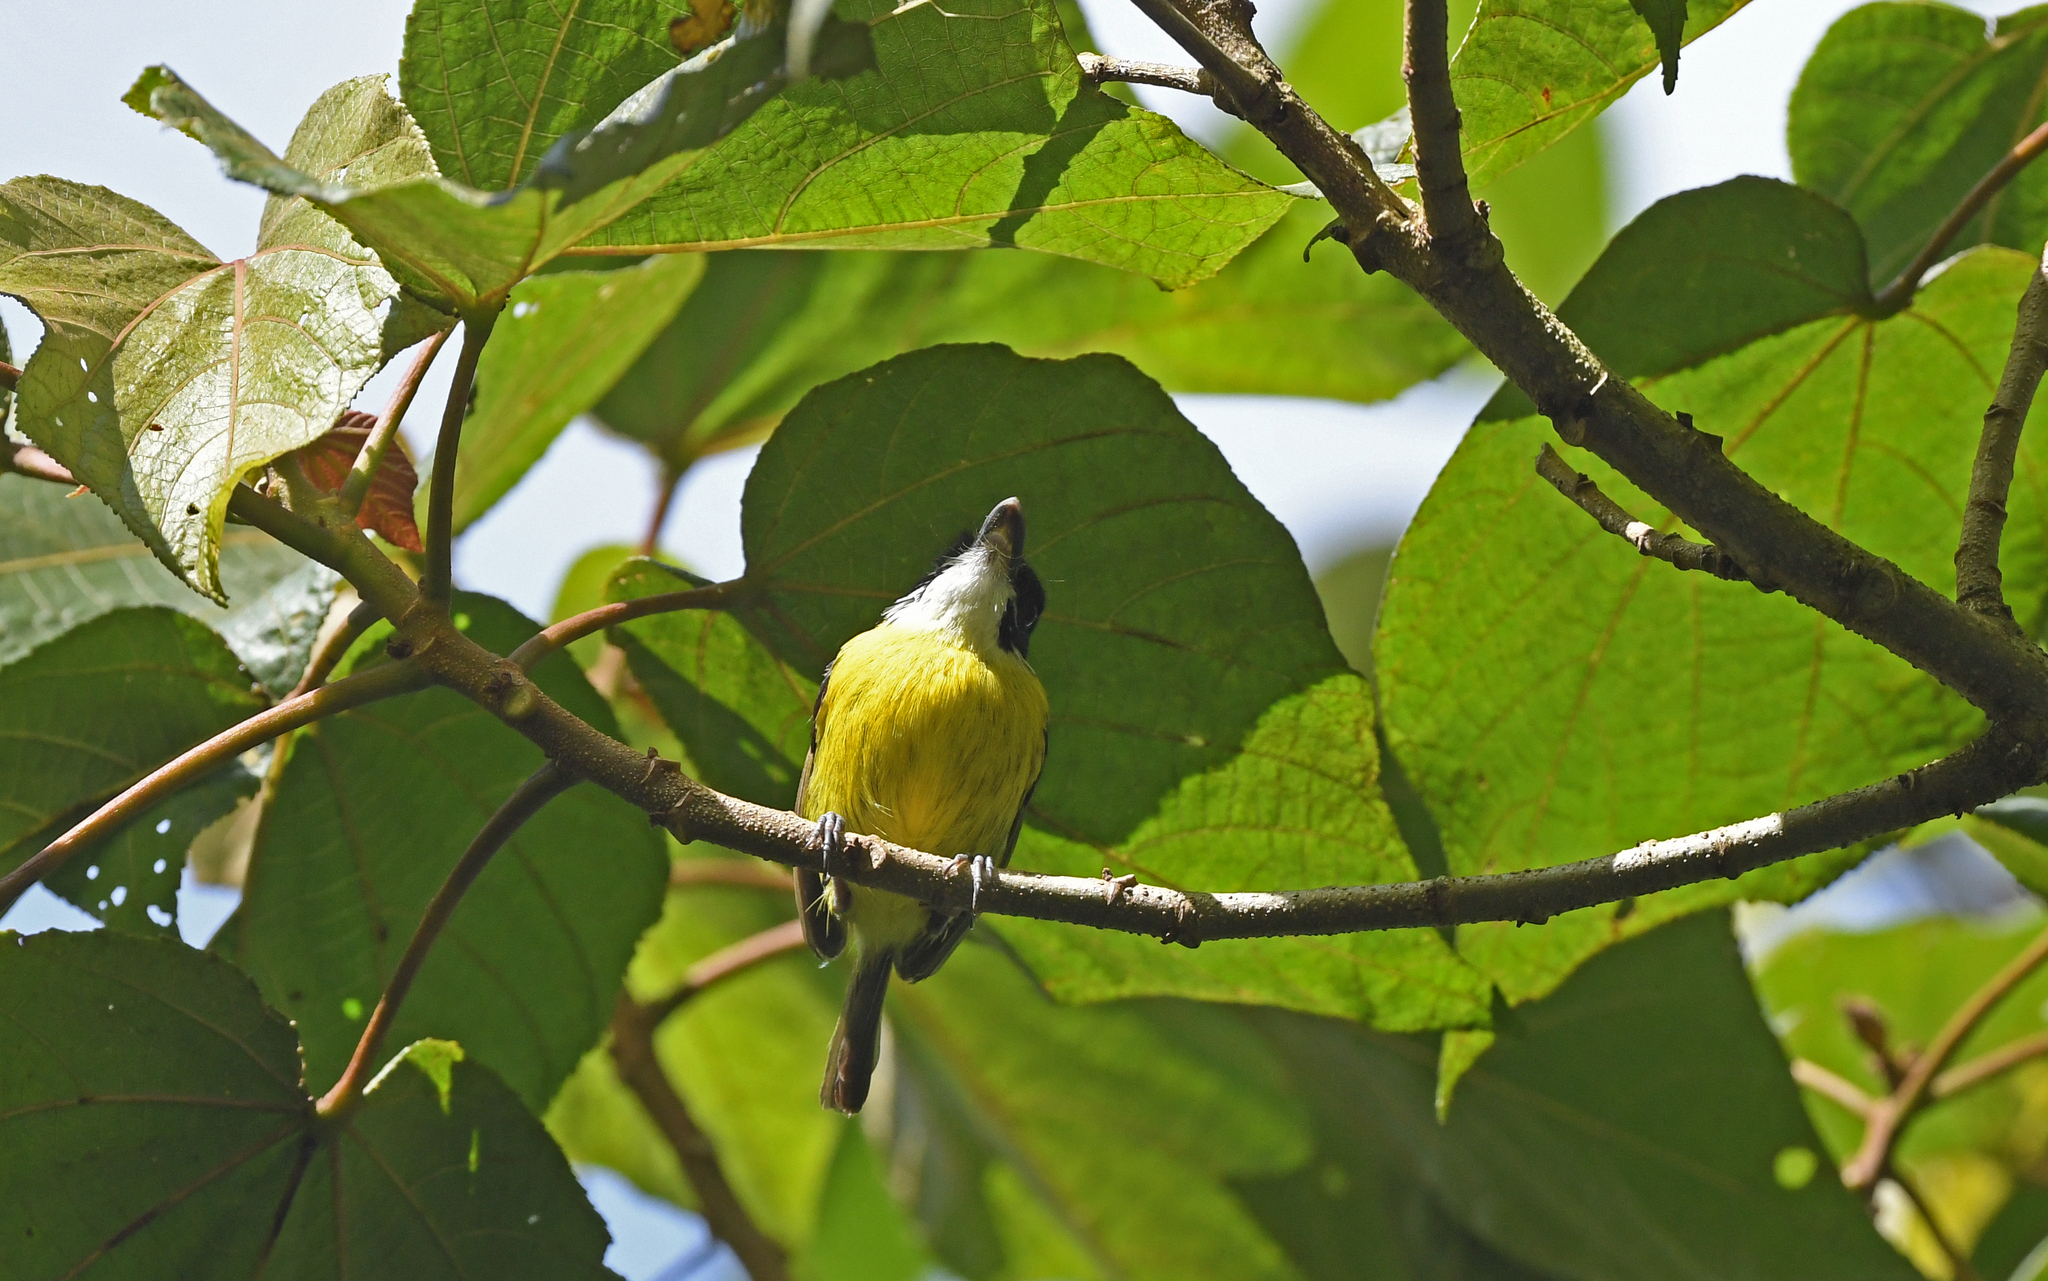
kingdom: Animalia
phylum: Chordata
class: Aves
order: Passeriformes
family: Tyrannidae
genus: Todirostrum
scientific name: Todirostrum nigriceps
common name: Black-headed tody-flycatcher
